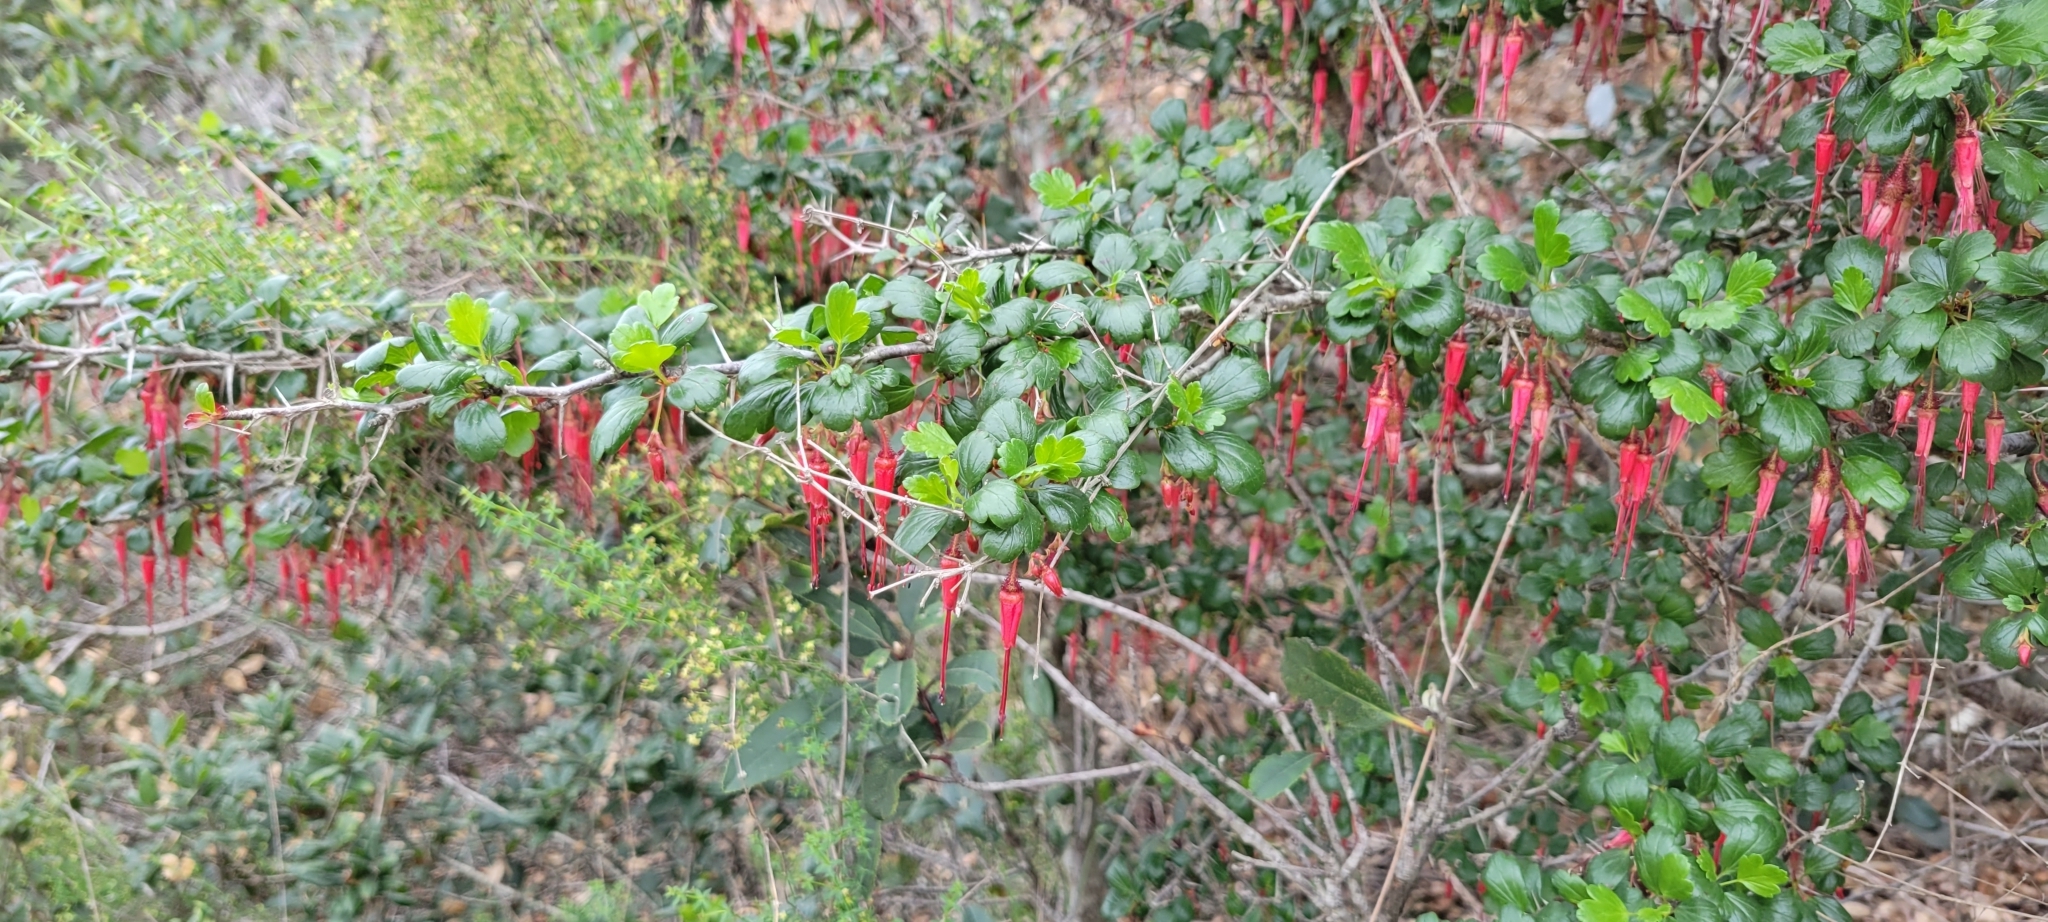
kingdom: Plantae
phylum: Tracheophyta
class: Magnoliopsida
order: Saxifragales
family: Grossulariaceae
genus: Ribes
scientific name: Ribes speciosum
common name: Fuchsia-flower gooseberry
